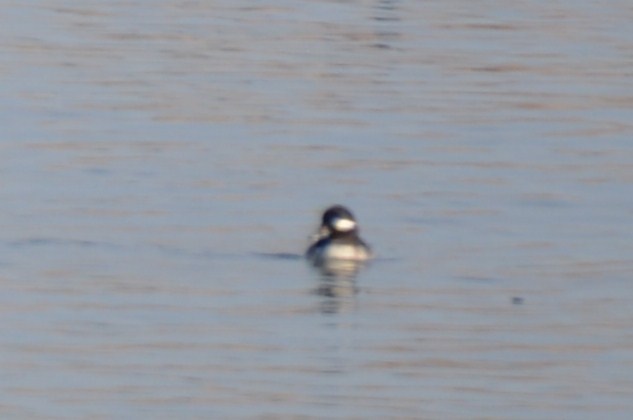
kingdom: Animalia
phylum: Chordata
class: Aves
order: Anseriformes
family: Anatidae
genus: Bucephala
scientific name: Bucephala albeola
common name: Bufflehead
